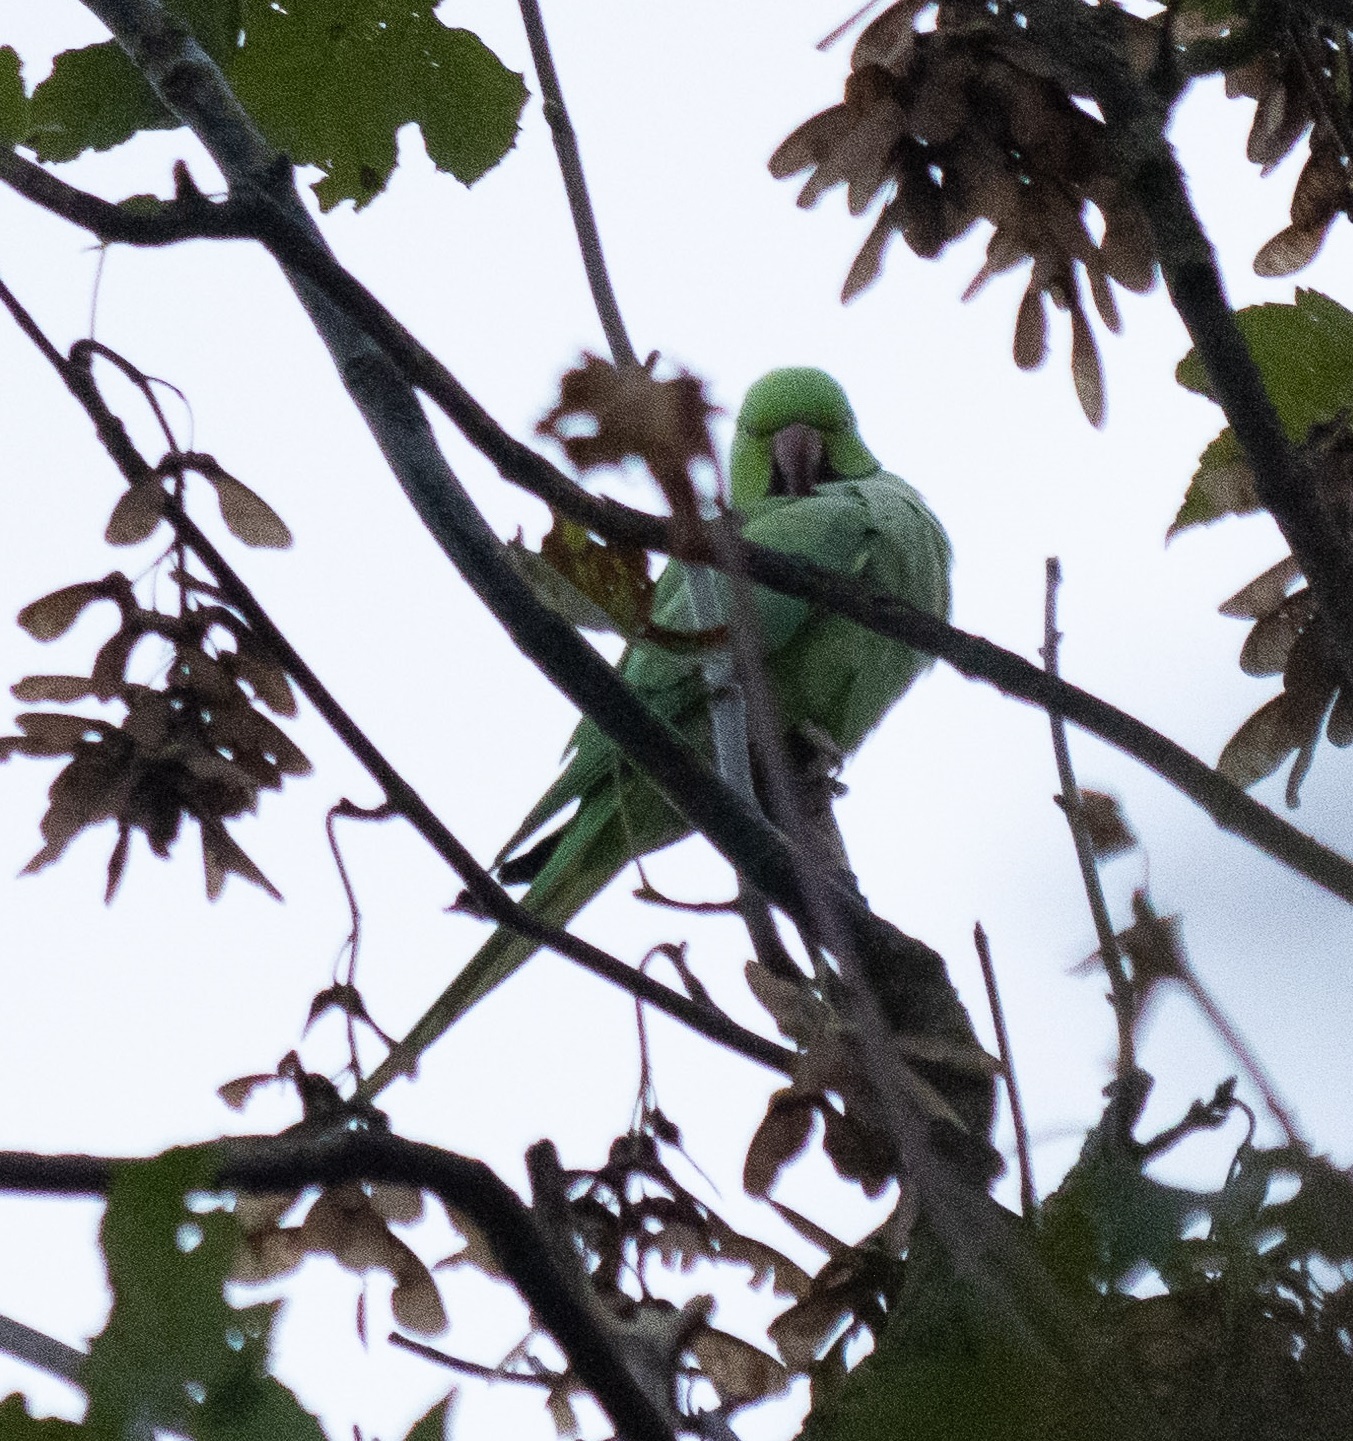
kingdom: Animalia
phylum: Chordata
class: Aves
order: Psittaciformes
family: Psittacidae
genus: Psittacula
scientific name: Psittacula krameri
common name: Rose-ringed parakeet
